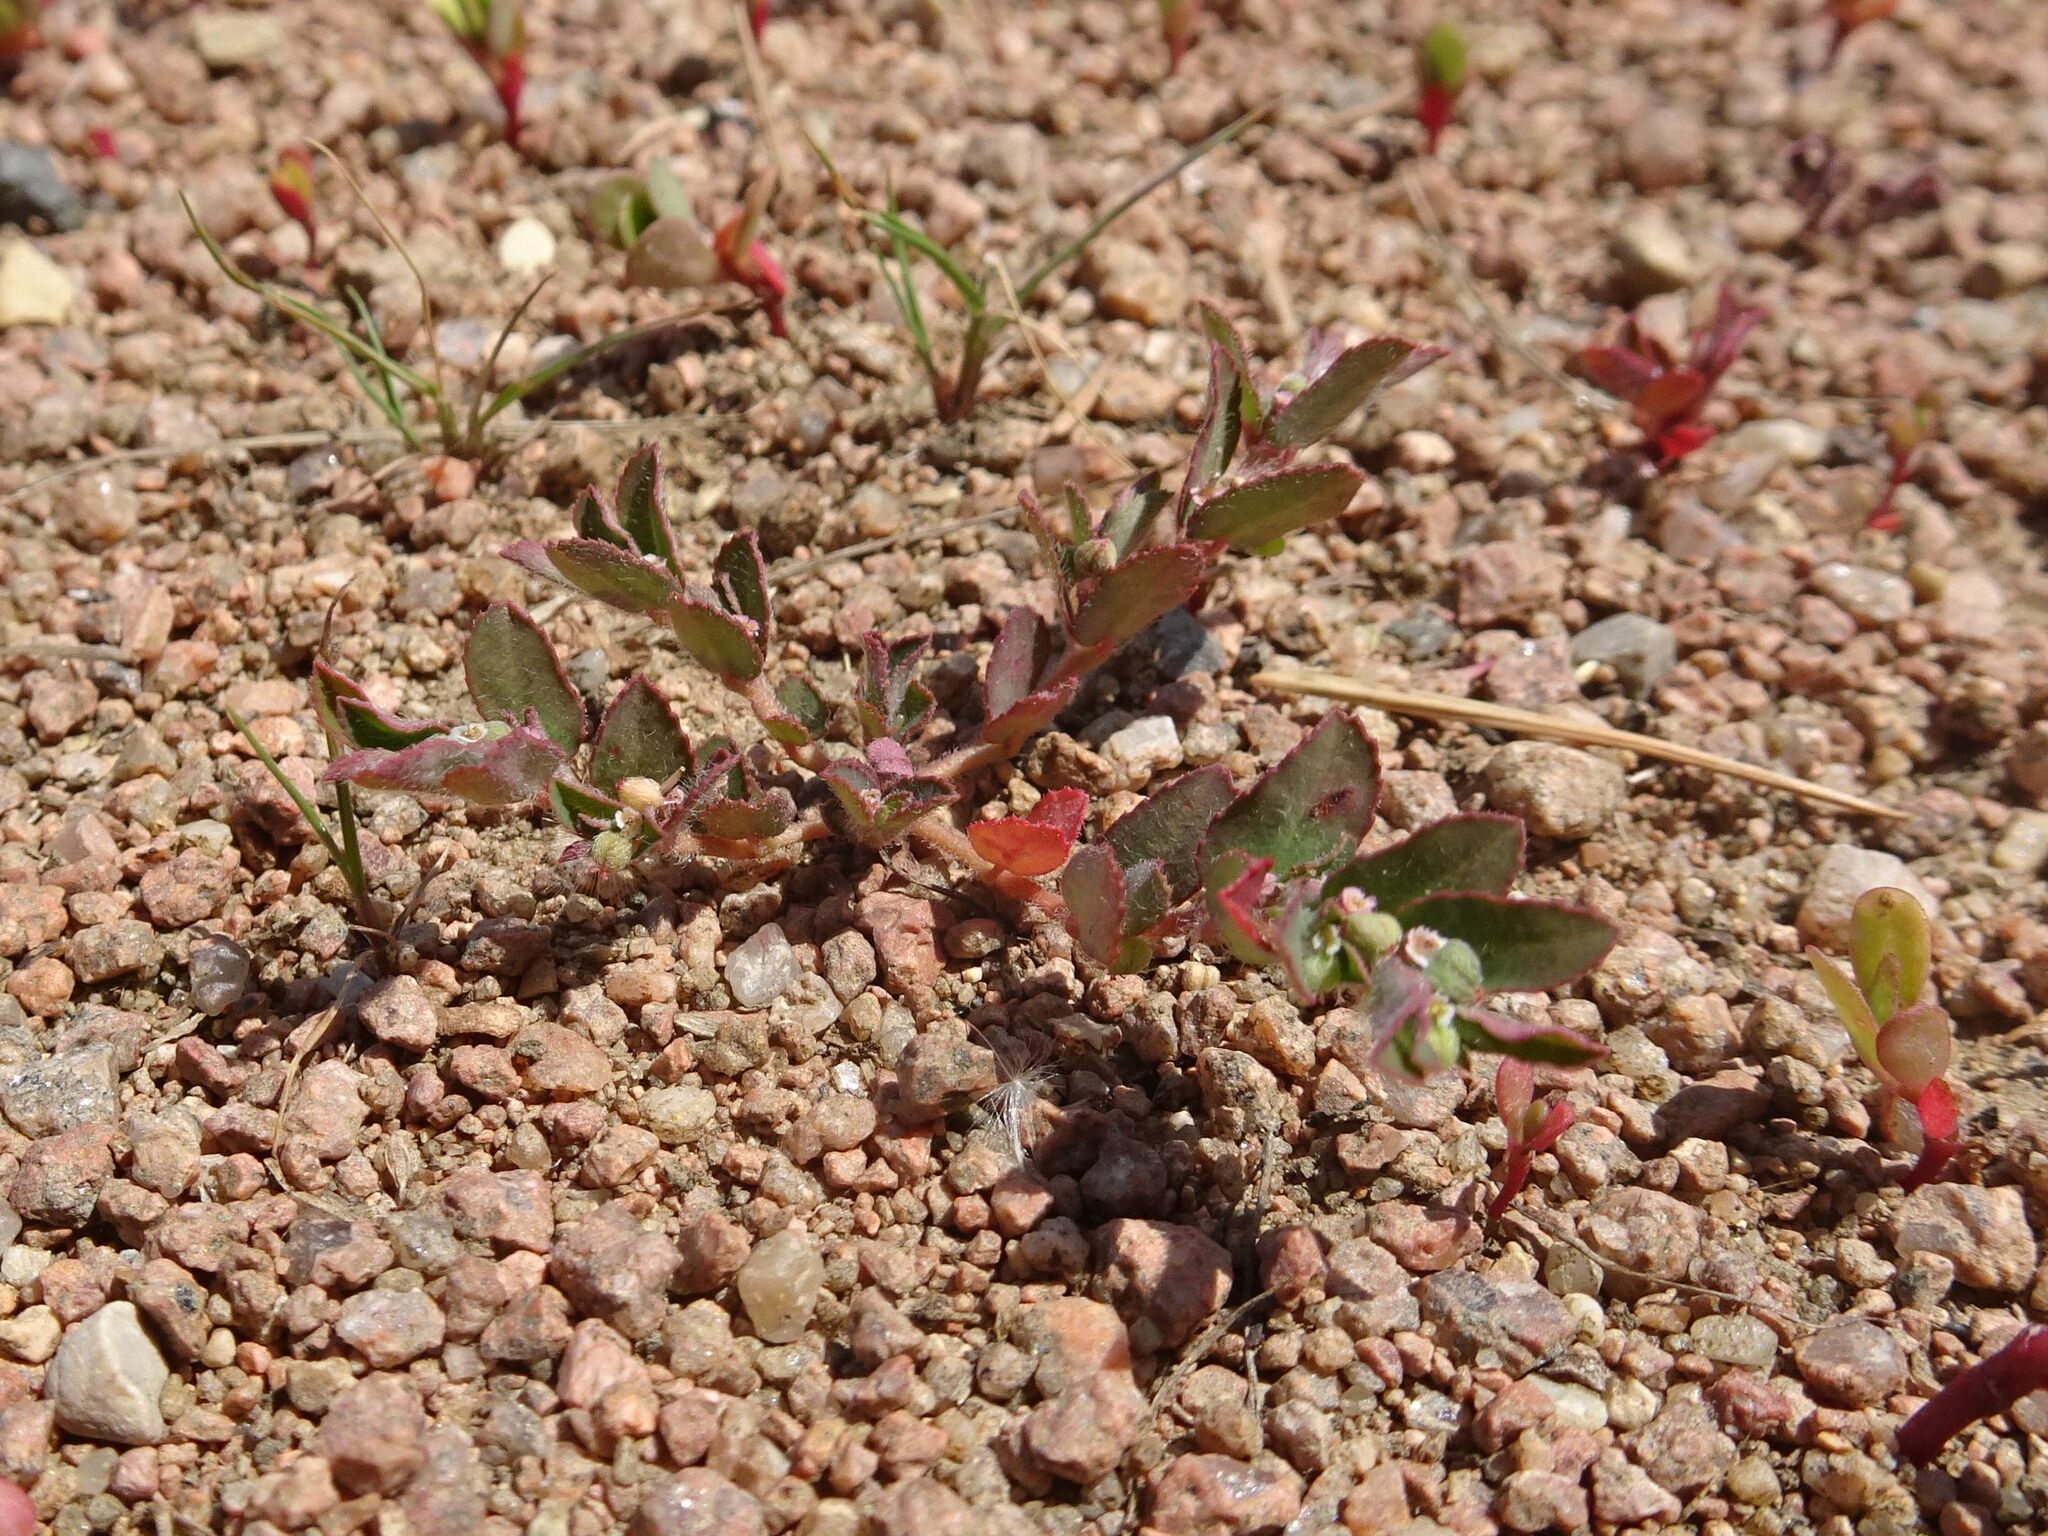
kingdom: Plantae
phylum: Tracheophyta
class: Magnoliopsida
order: Malpighiales
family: Euphorbiaceae
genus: Euphorbia
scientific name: Euphorbia maculata
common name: Spotted spurge
